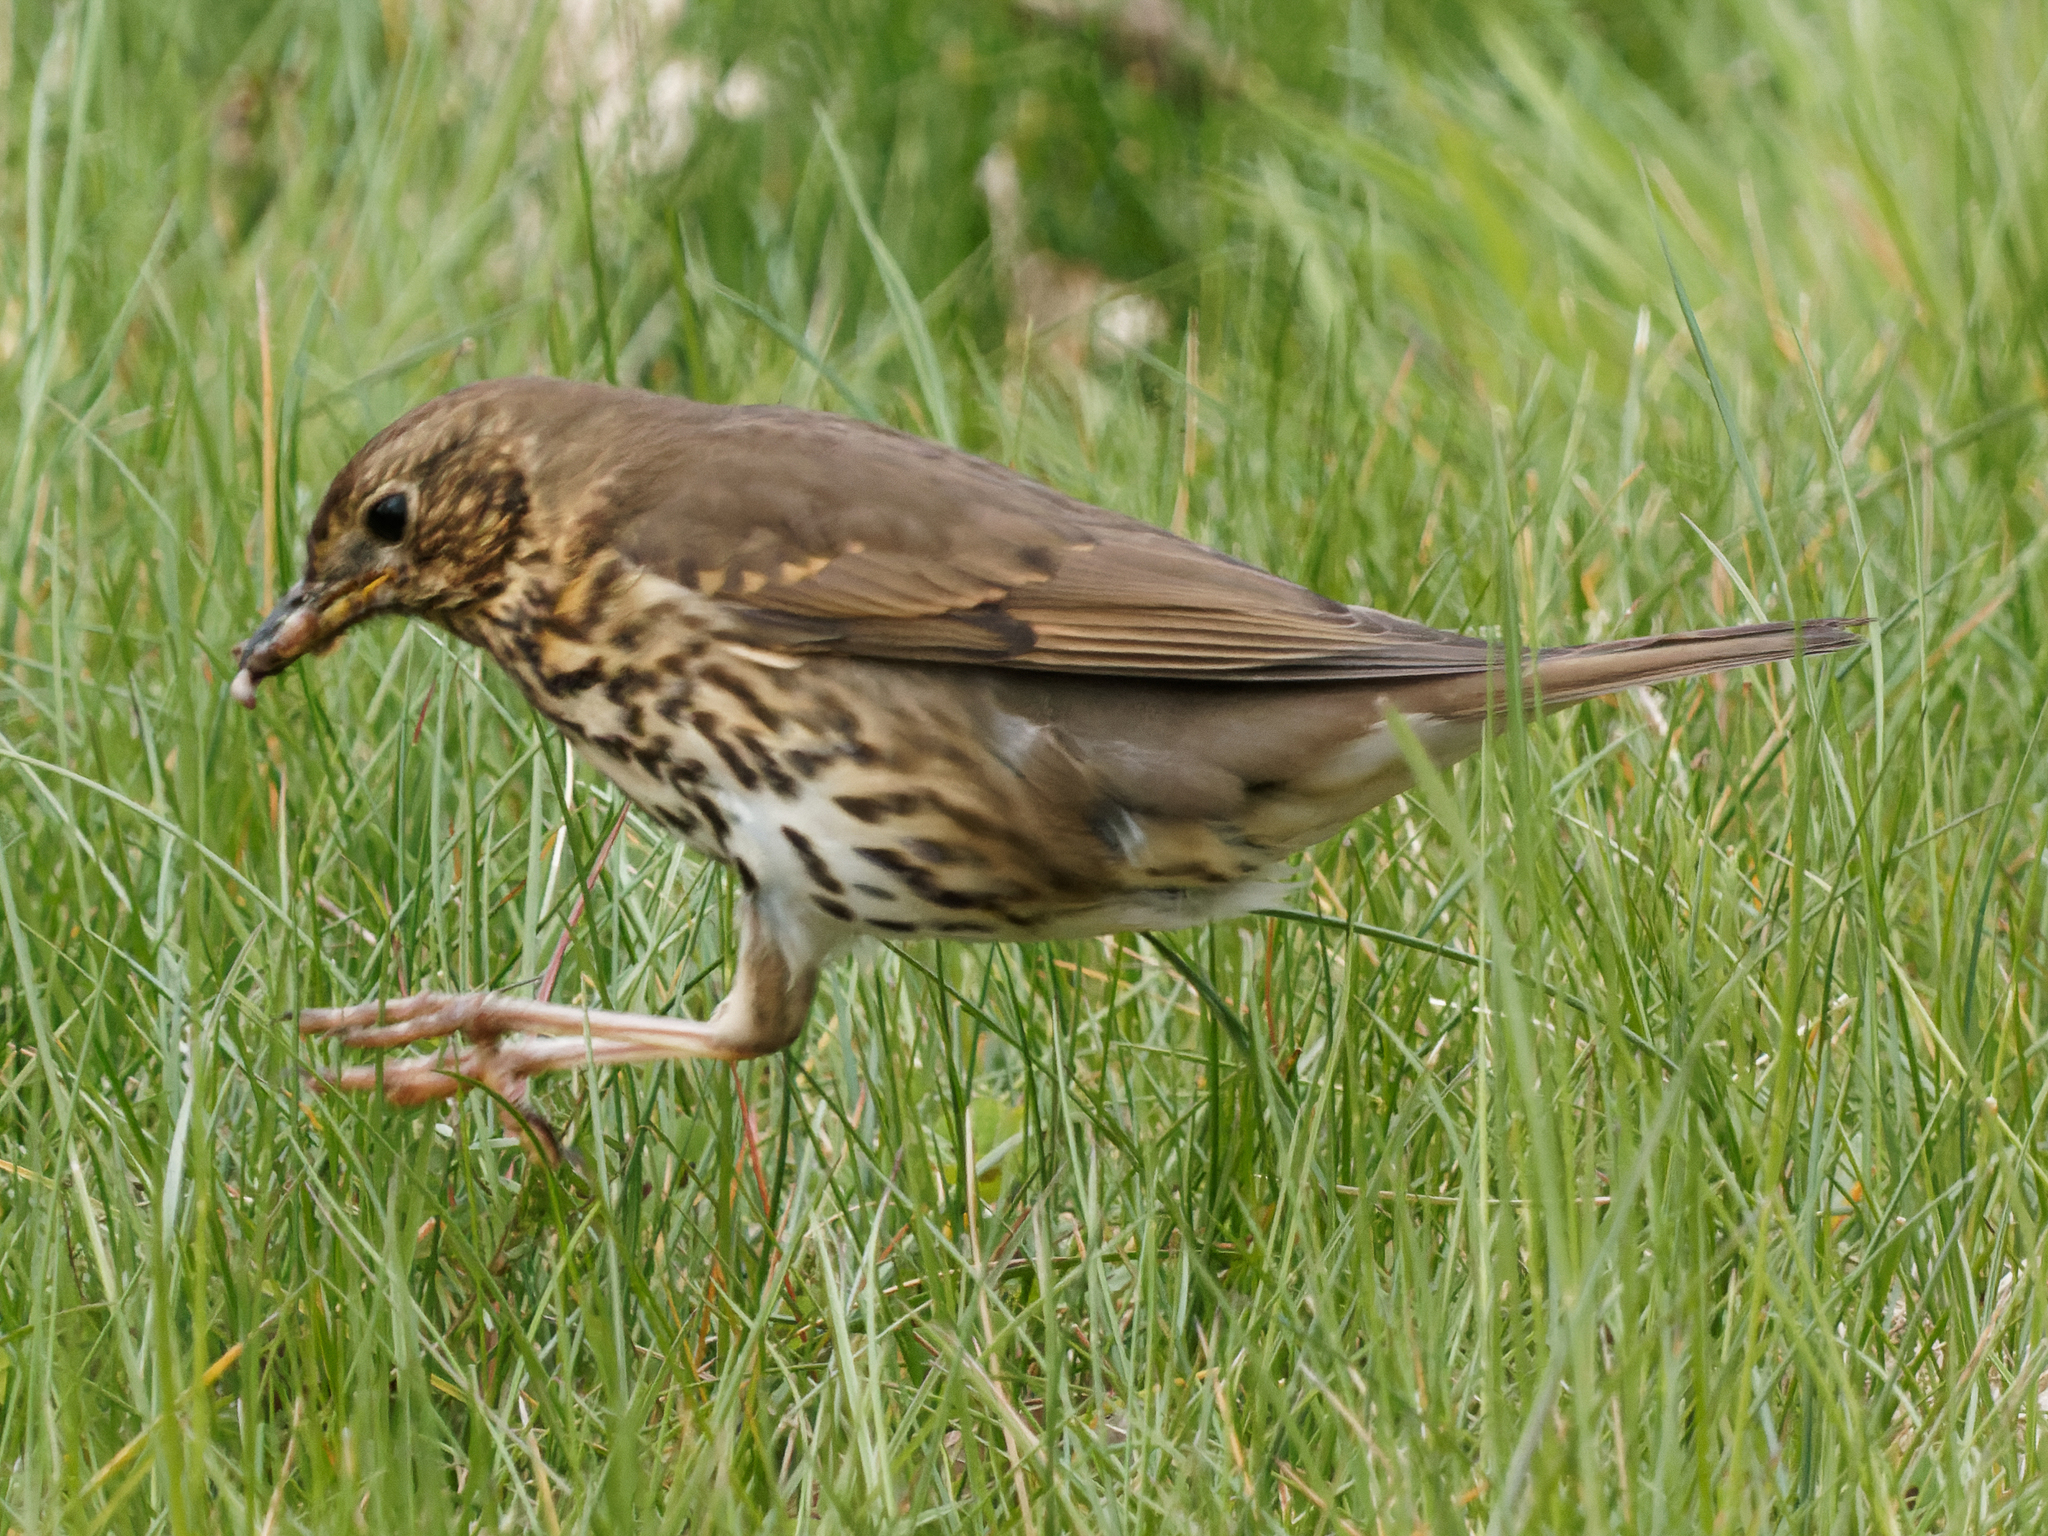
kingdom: Animalia
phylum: Chordata
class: Aves
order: Passeriformes
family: Turdidae
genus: Turdus
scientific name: Turdus philomelos
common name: Song thrush
